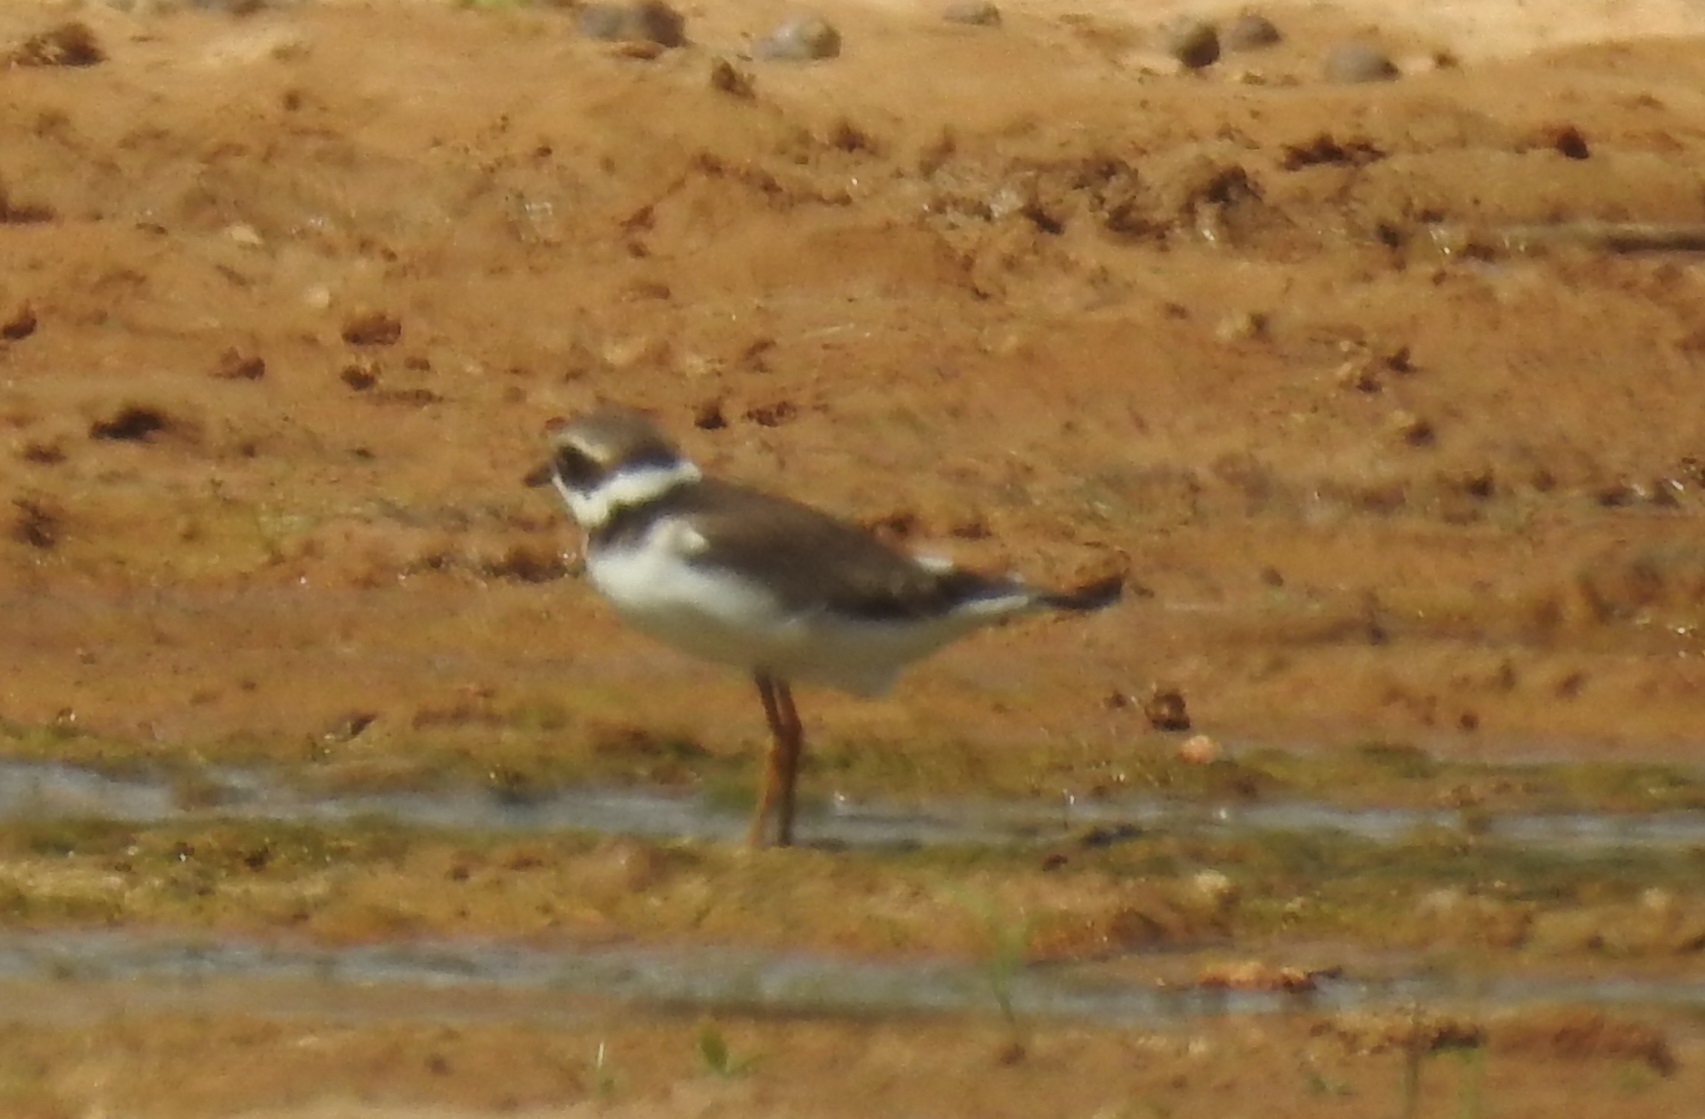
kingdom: Animalia
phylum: Chordata
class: Aves
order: Charadriiformes
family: Charadriidae
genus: Charadrius
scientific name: Charadrius hiaticula
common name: Common ringed plover
